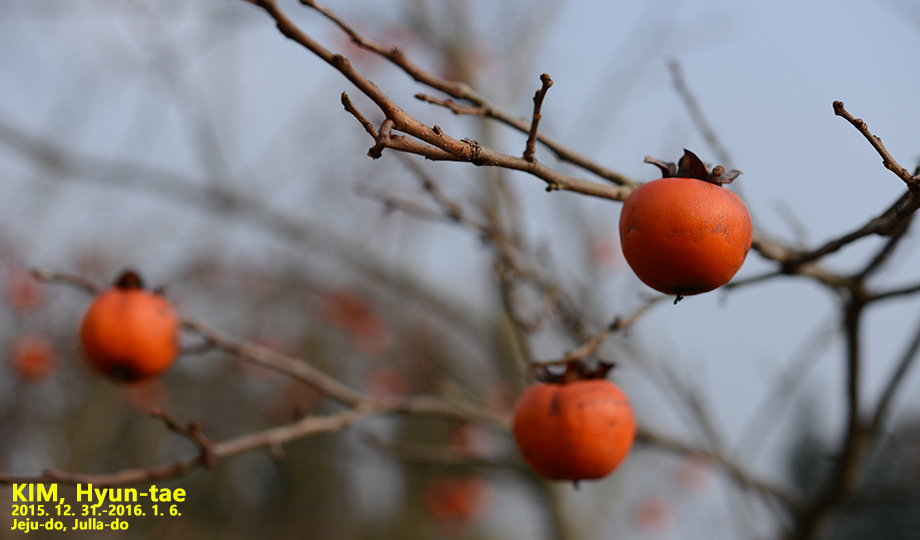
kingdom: Plantae
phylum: Tracheophyta
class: Magnoliopsida
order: Ericales
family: Ebenaceae
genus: Diospyros
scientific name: Diospyros kaki
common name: Persimmon
